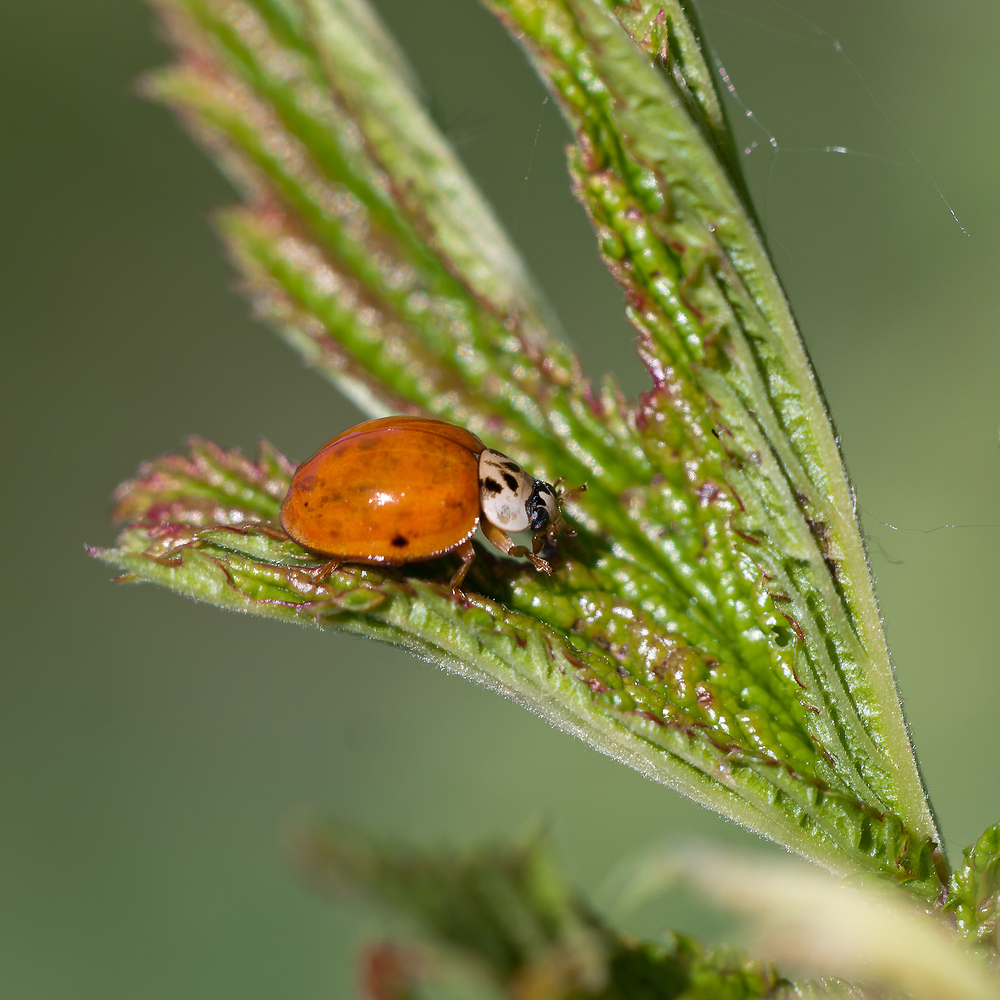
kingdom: Animalia
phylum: Arthropoda
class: Insecta
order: Coleoptera
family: Coccinellidae
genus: Harmonia
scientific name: Harmonia axyridis
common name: Harlequin ladybird
